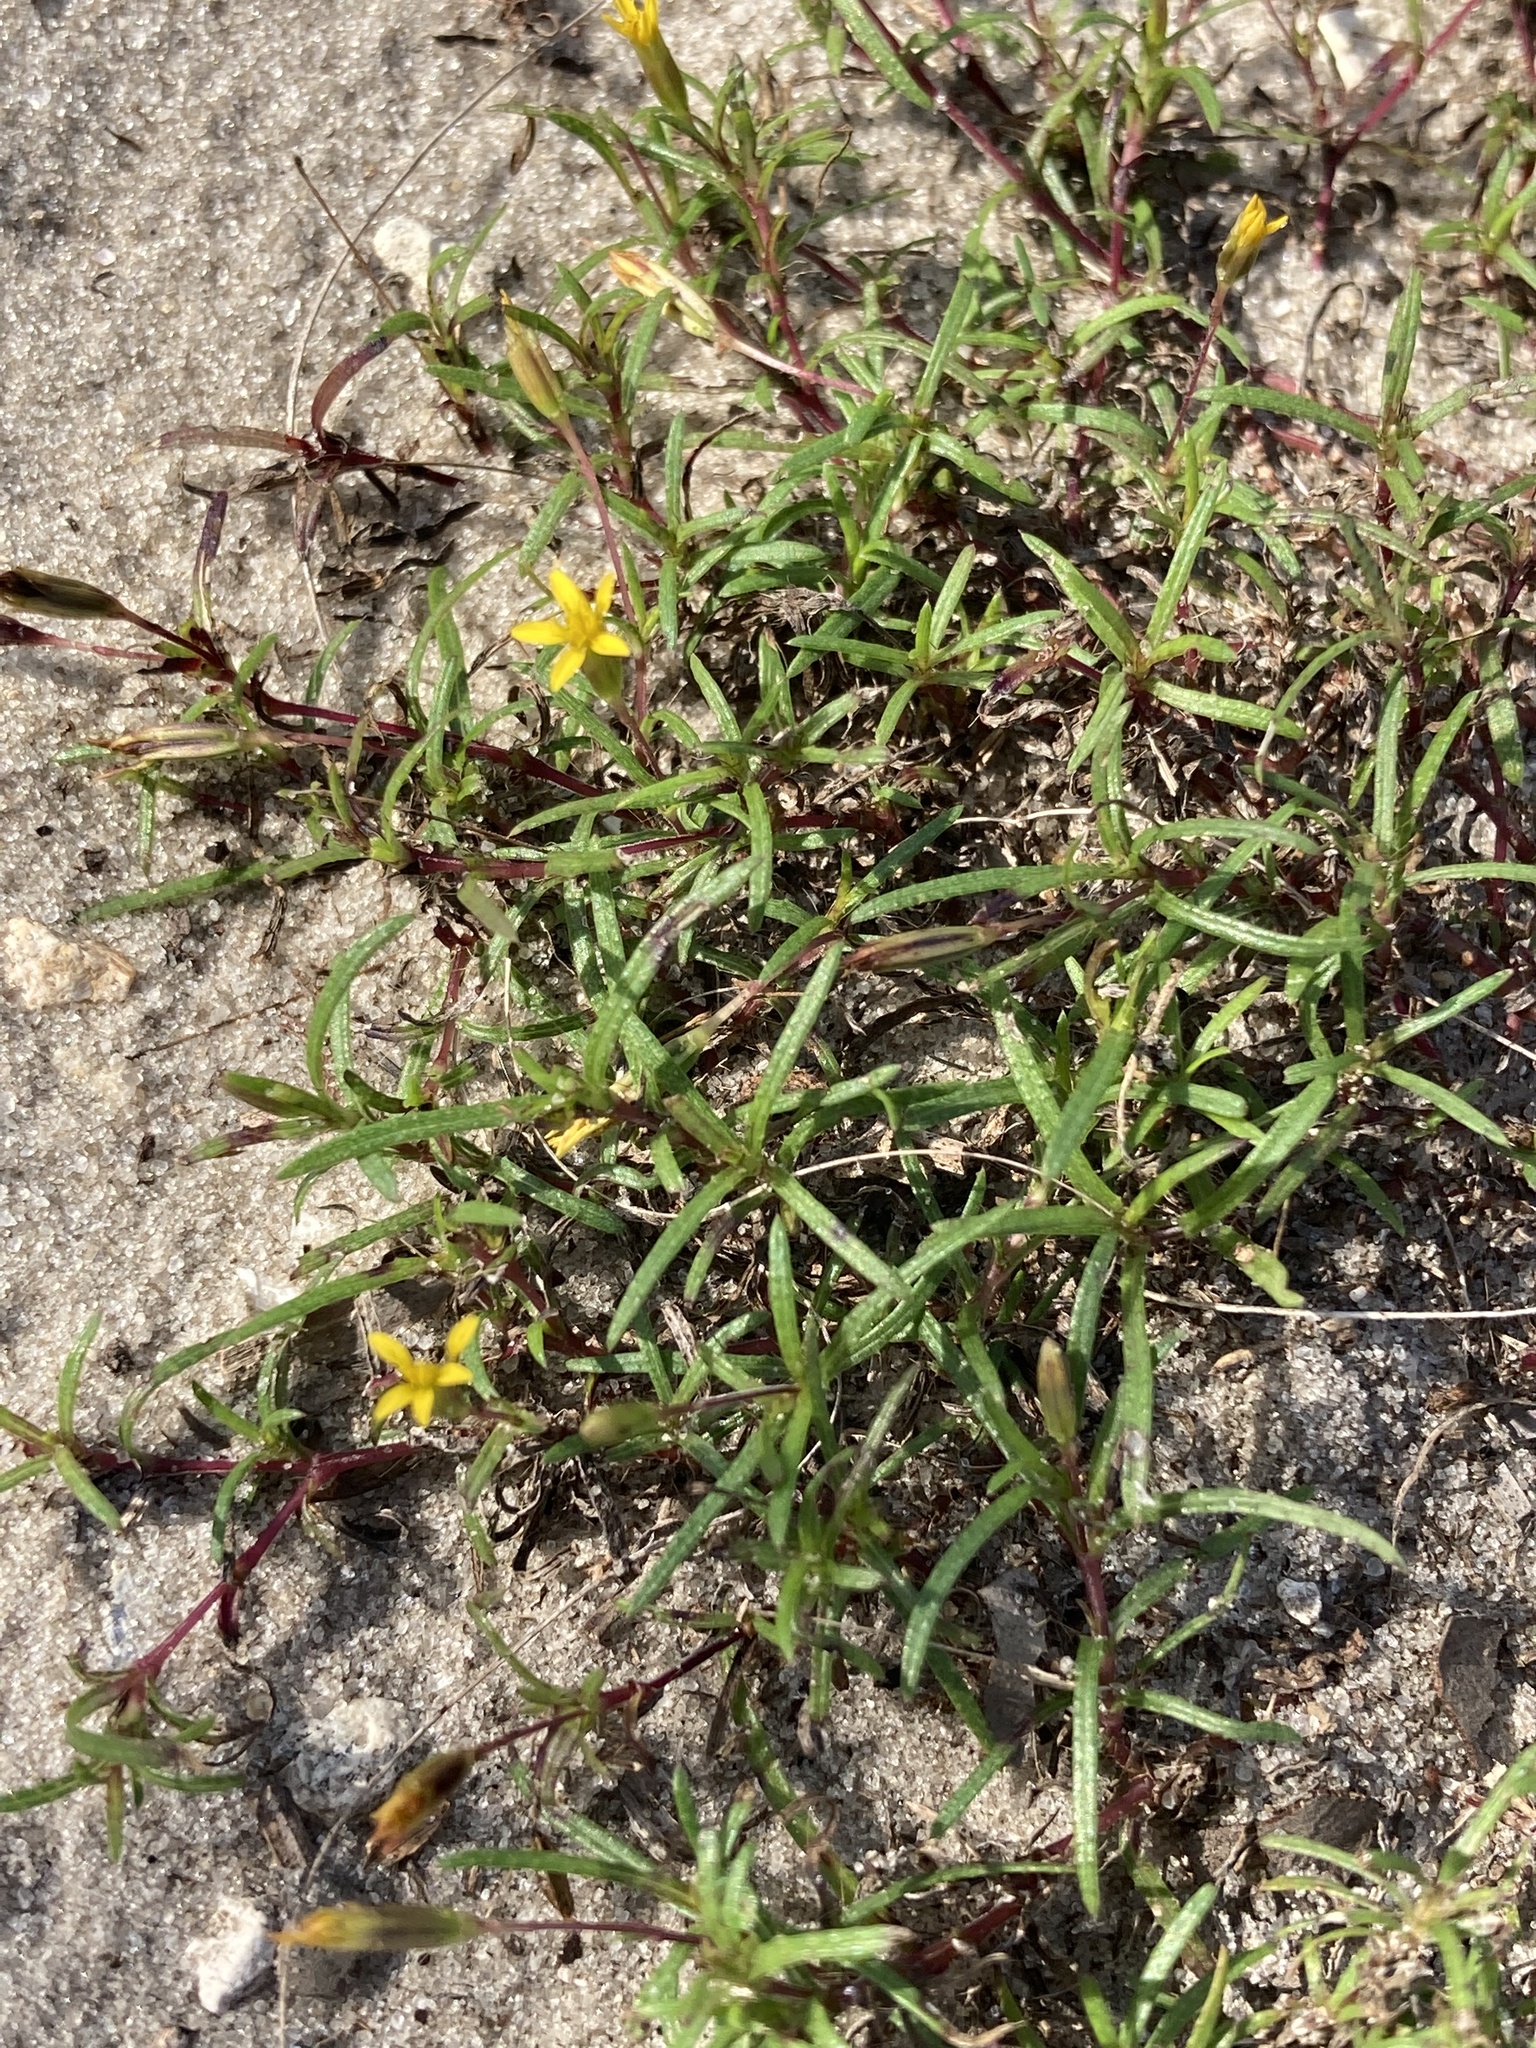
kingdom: Plantae
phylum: Tracheophyta
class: Magnoliopsida
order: Asterales
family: Asteraceae
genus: Pectis
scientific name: Pectis glaucescens
